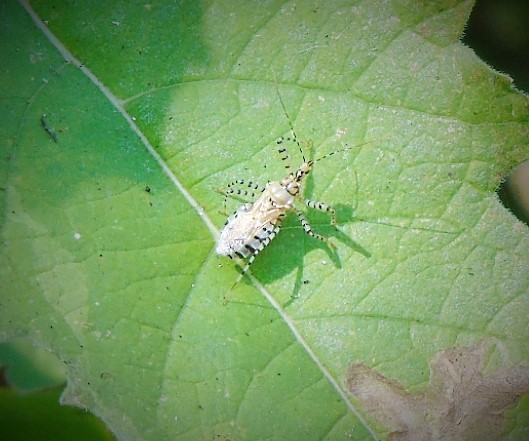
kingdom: Animalia
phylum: Arthropoda
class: Insecta
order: Hemiptera
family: Reduviidae
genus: Pselliopus
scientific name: Pselliopus
